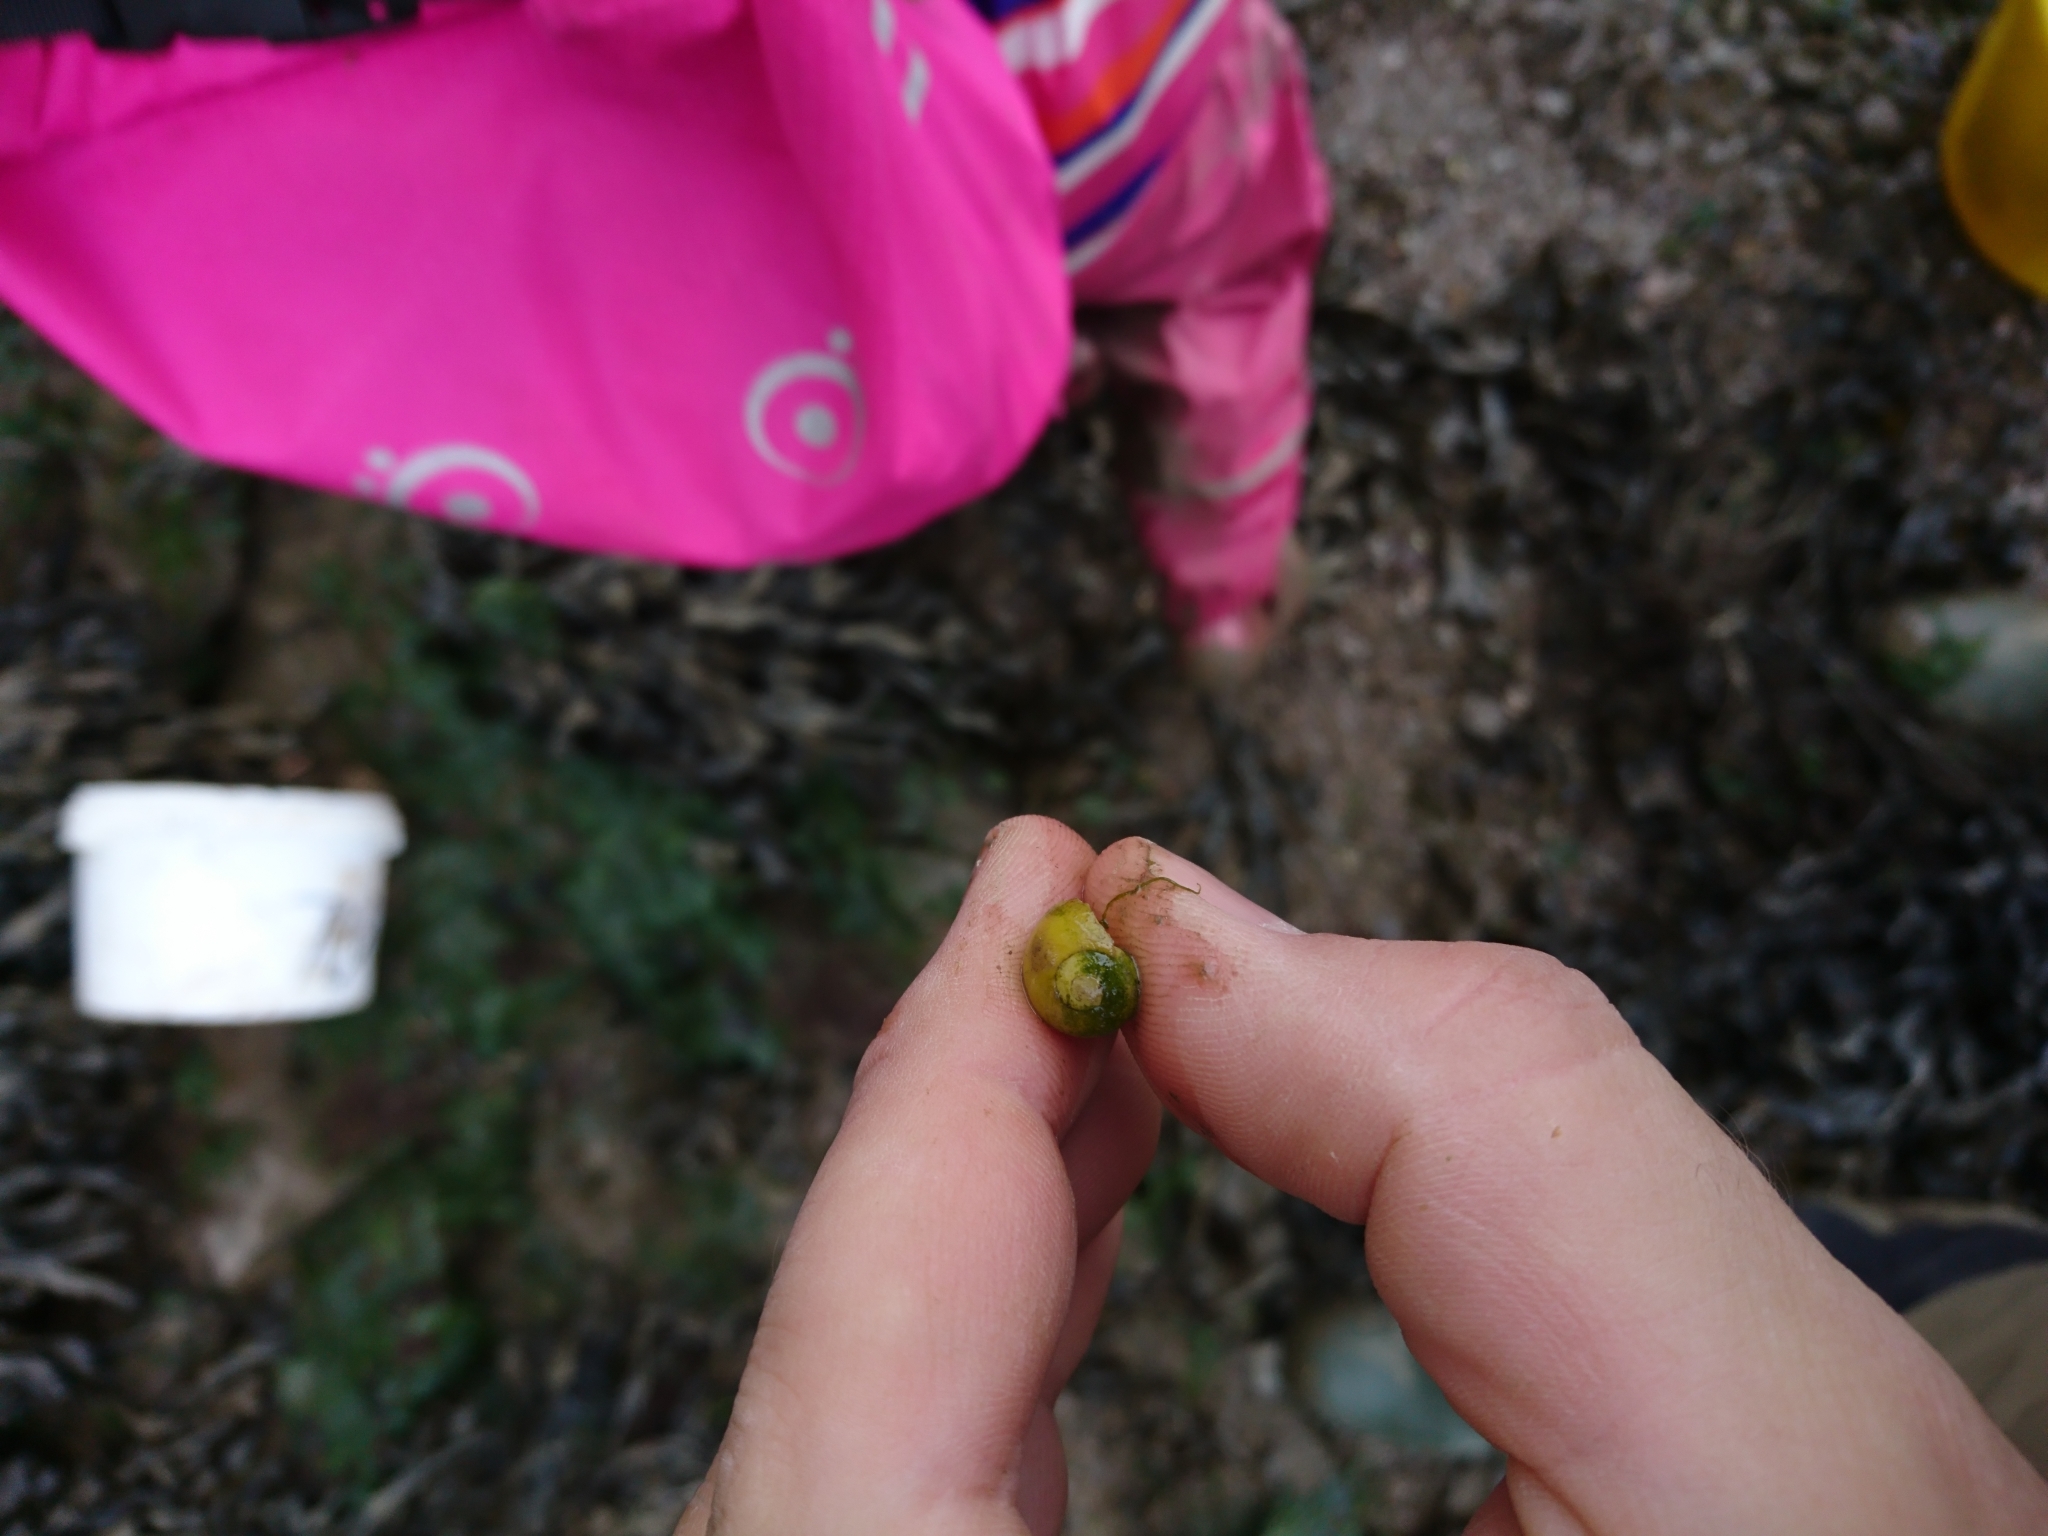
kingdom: Animalia
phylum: Mollusca
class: Gastropoda
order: Littorinimorpha
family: Littorinidae
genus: Littorina
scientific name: Littorina obtusata
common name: Flat periwinkle
